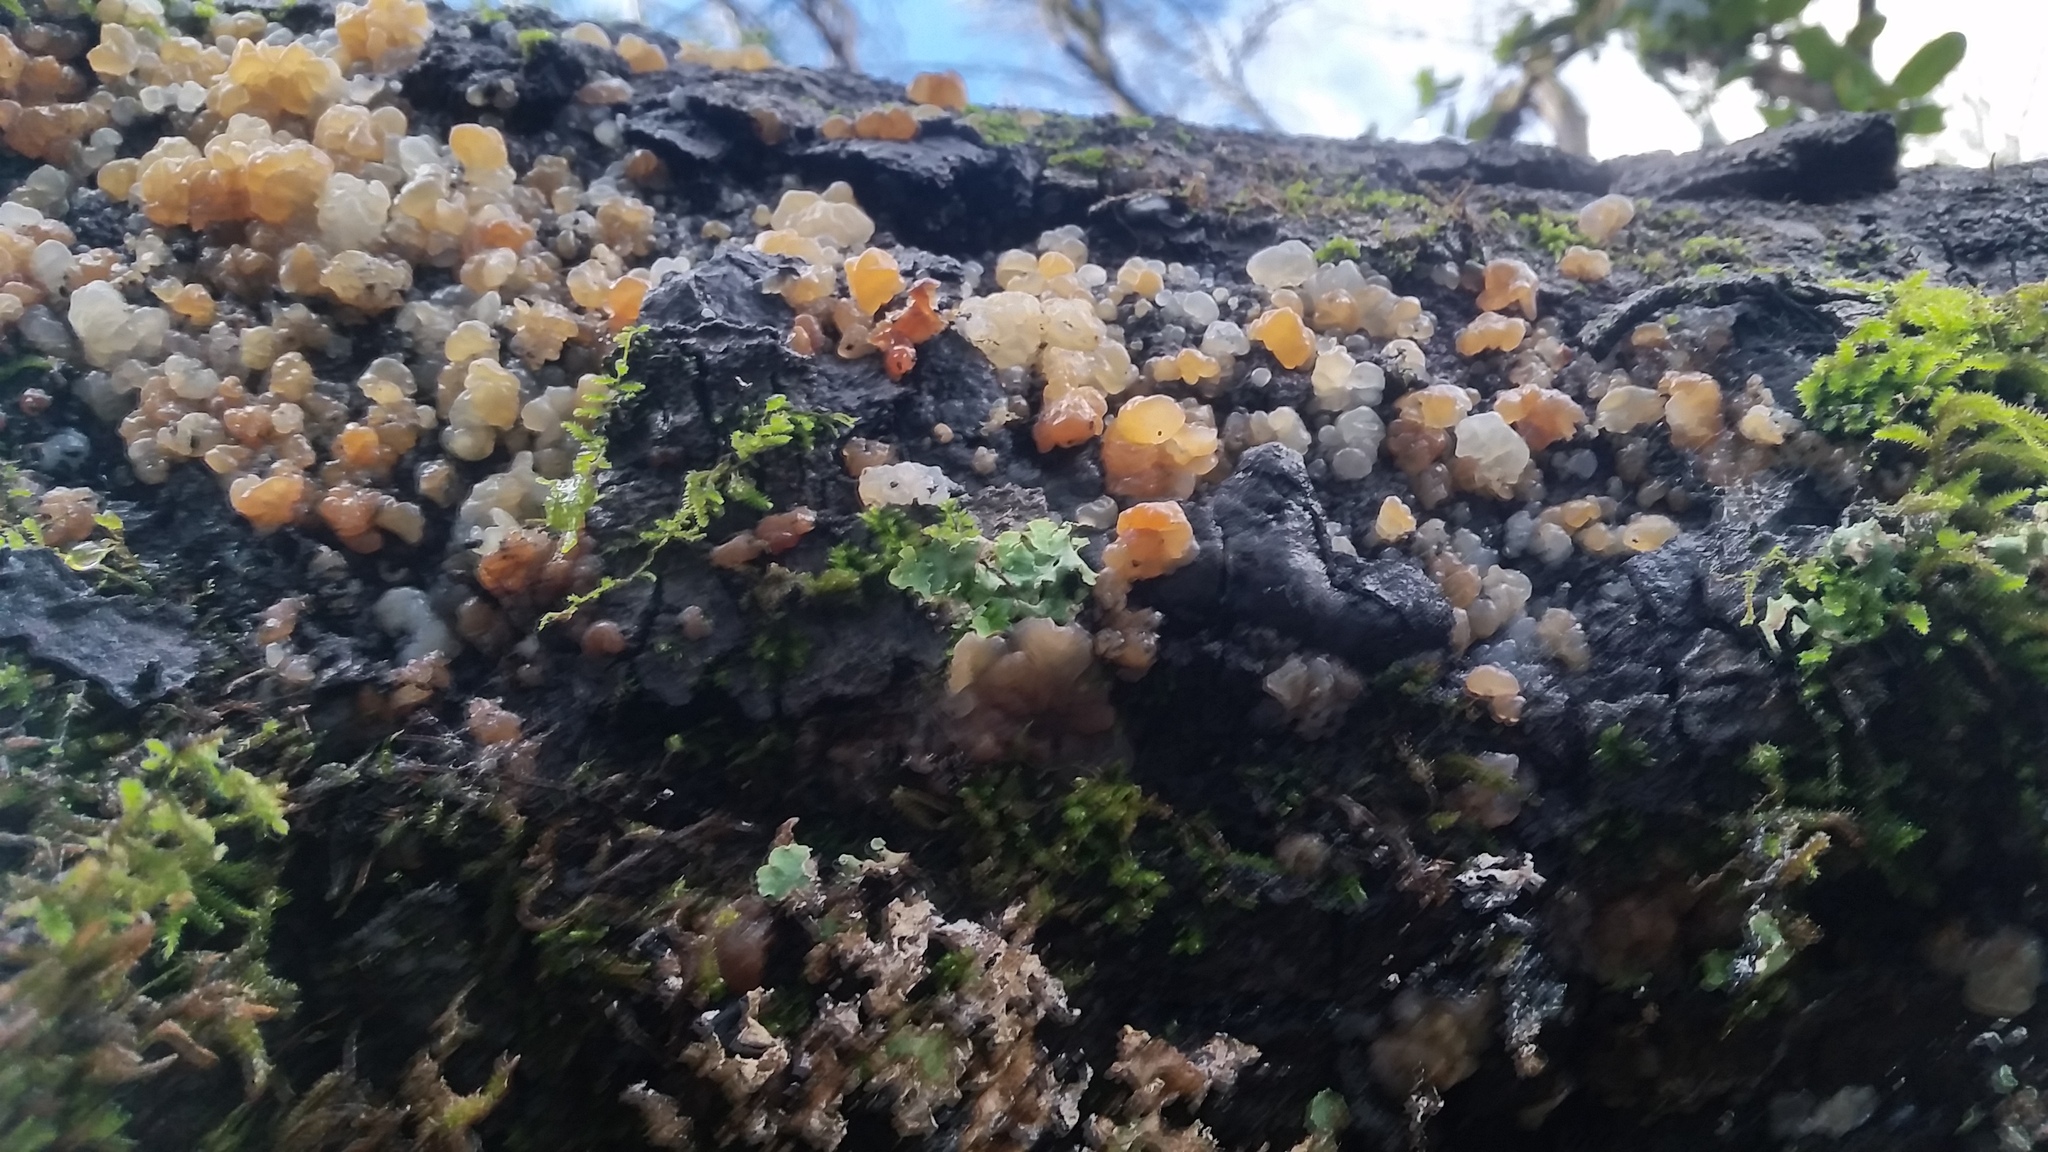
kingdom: Fungi
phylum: Basidiomycota
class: Agaricomycetes
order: Auriculariales
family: Hyaloriaceae
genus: Myxarium
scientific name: Myxarium nucleatum
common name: Crystal brain fungus
